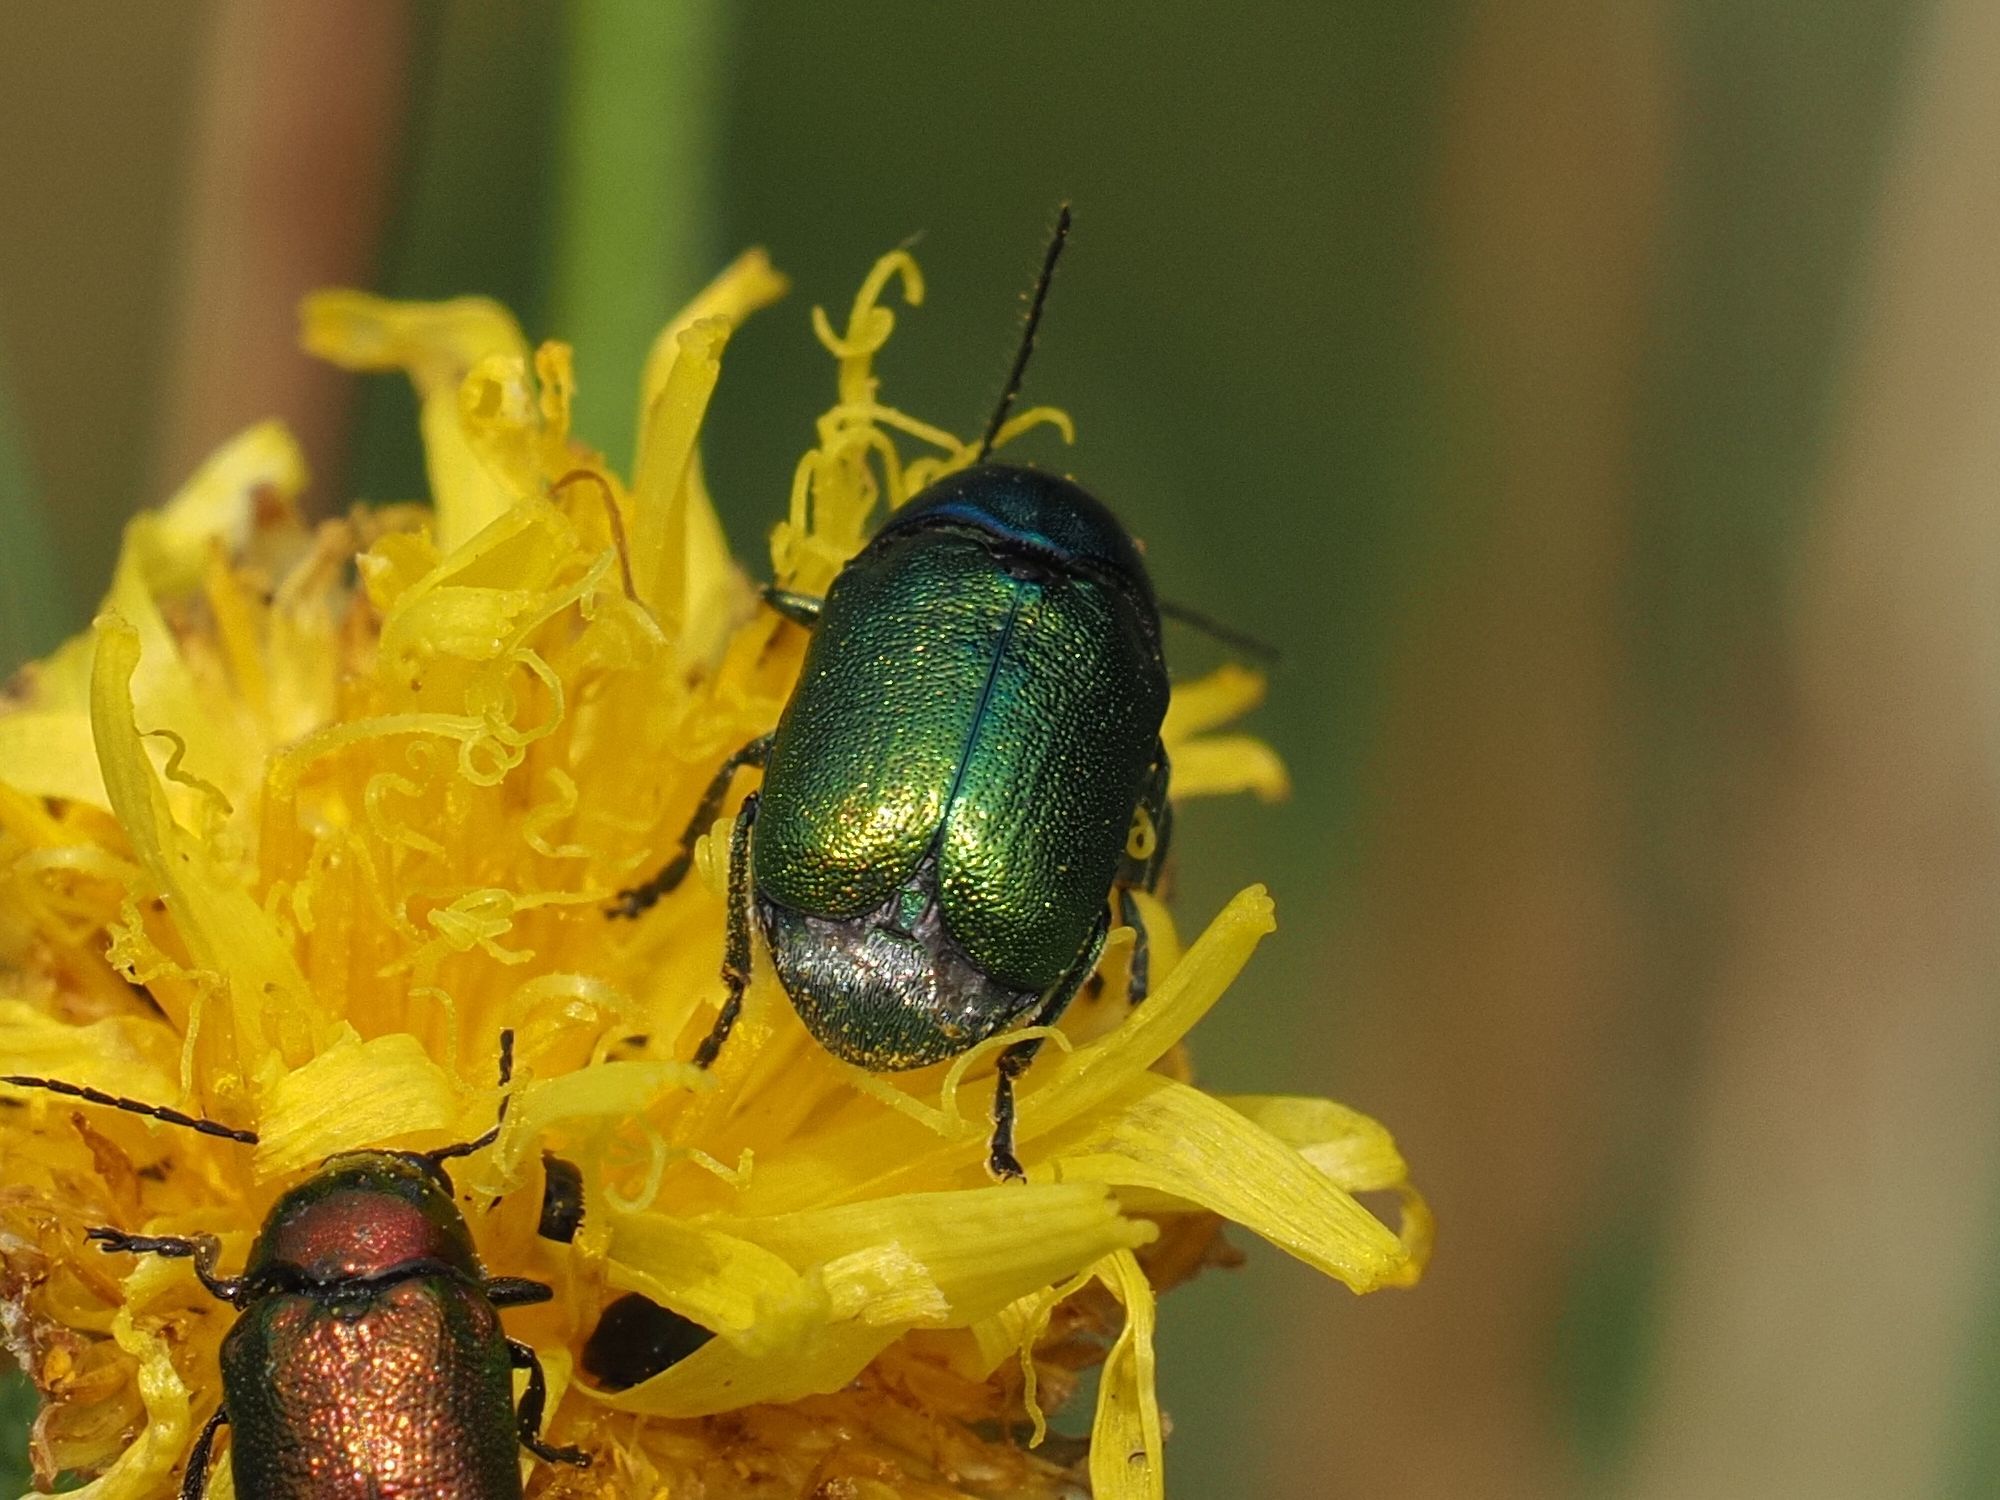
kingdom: Animalia
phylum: Arthropoda
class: Insecta
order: Coleoptera
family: Chrysomelidae
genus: Cryptocephalus
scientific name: Cryptocephalus
